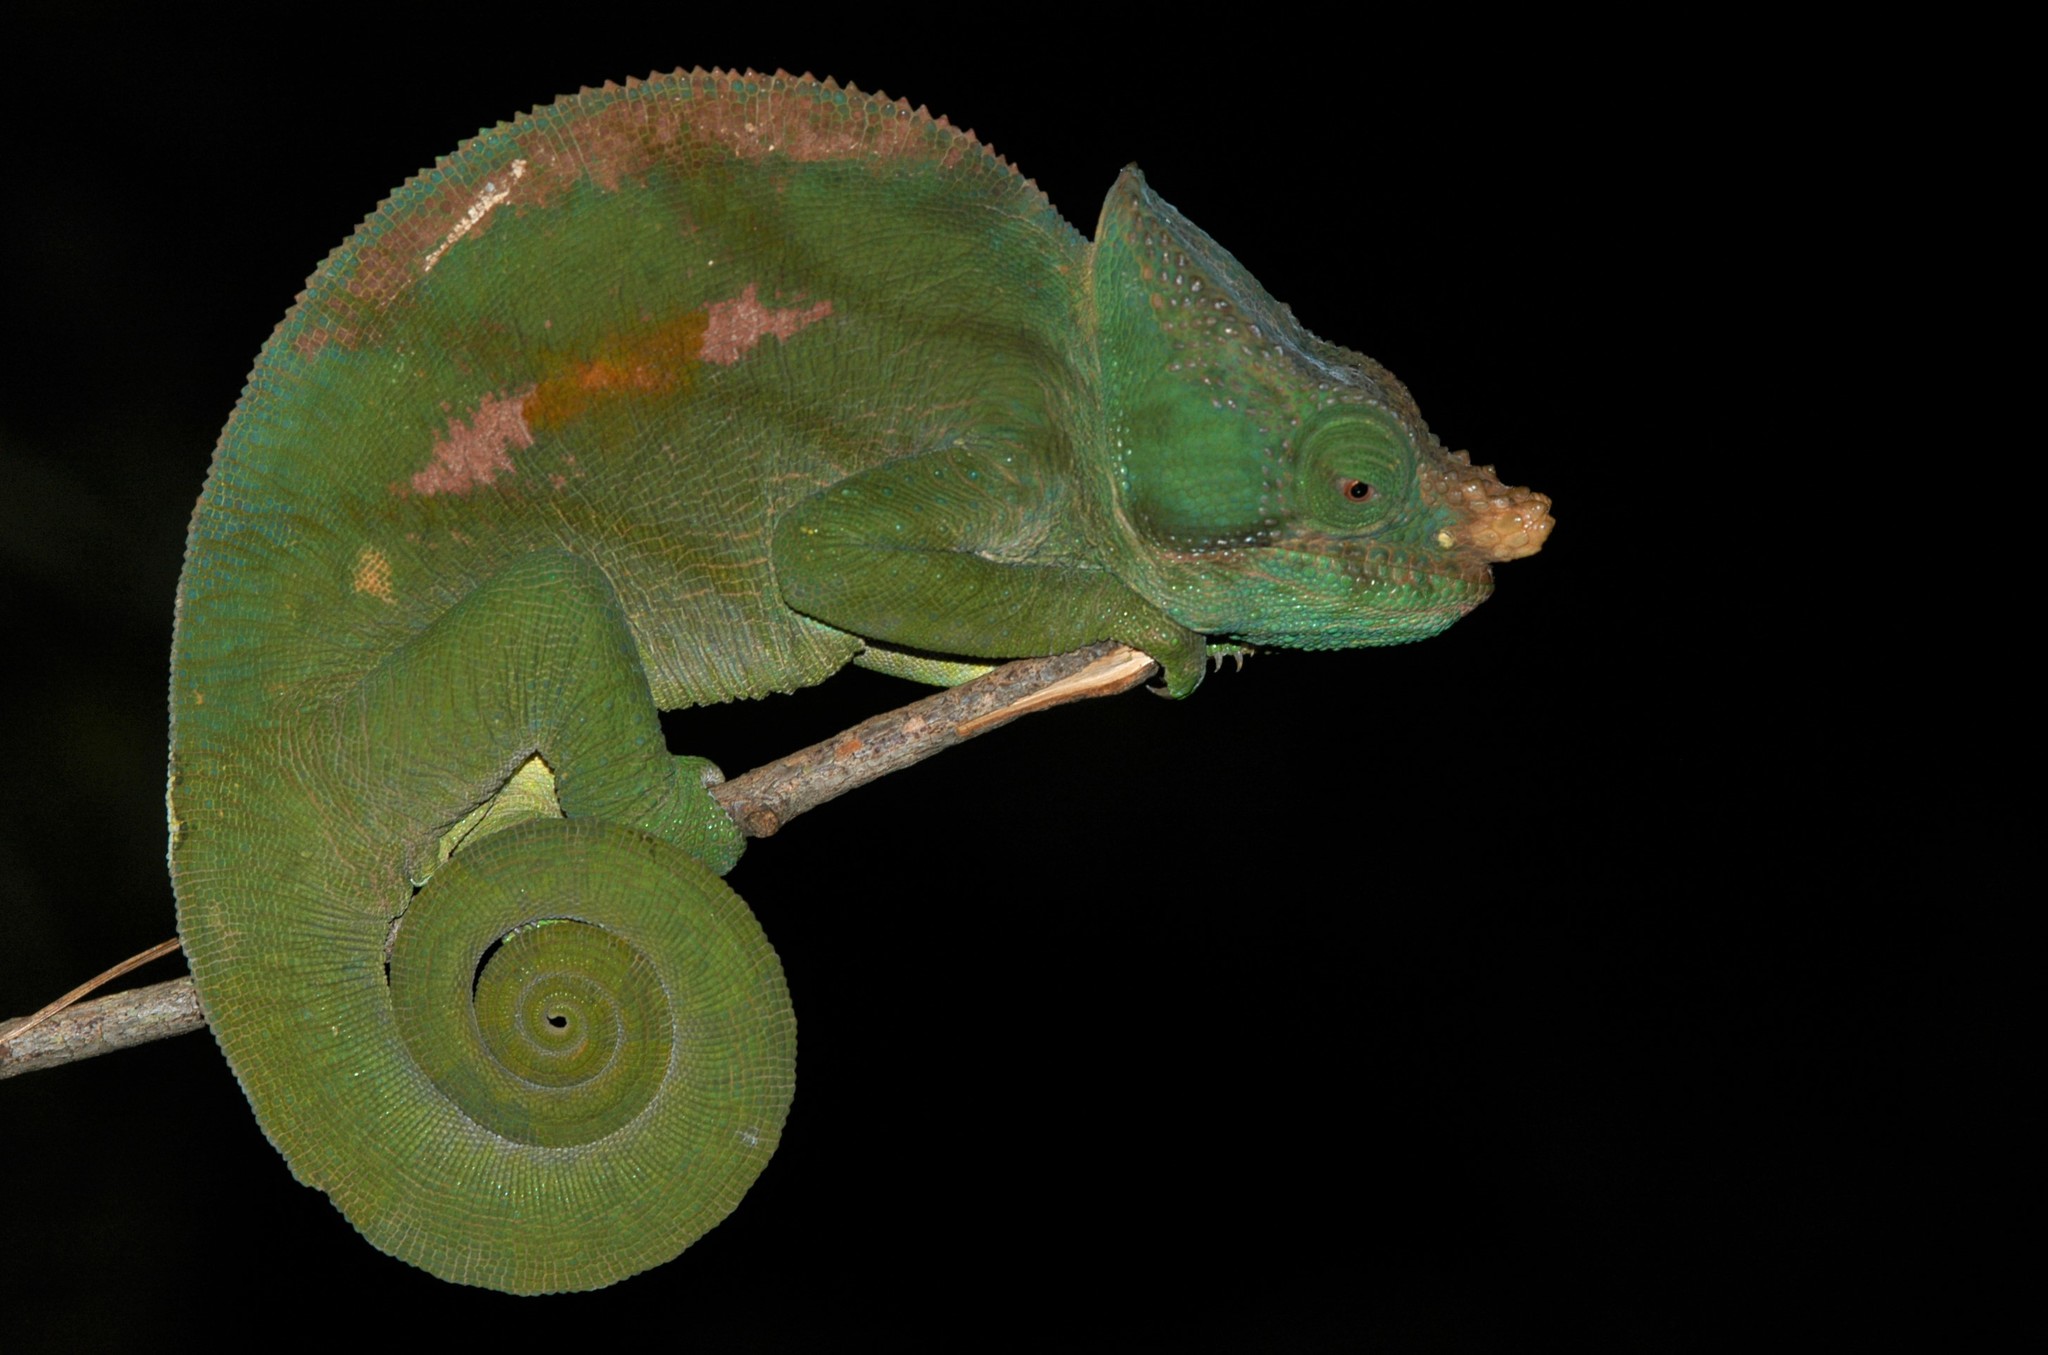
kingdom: Animalia
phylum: Chordata
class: Squamata
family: Chamaeleonidae
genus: Calumma
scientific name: Calumma parsonii
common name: Parson's chameleon
